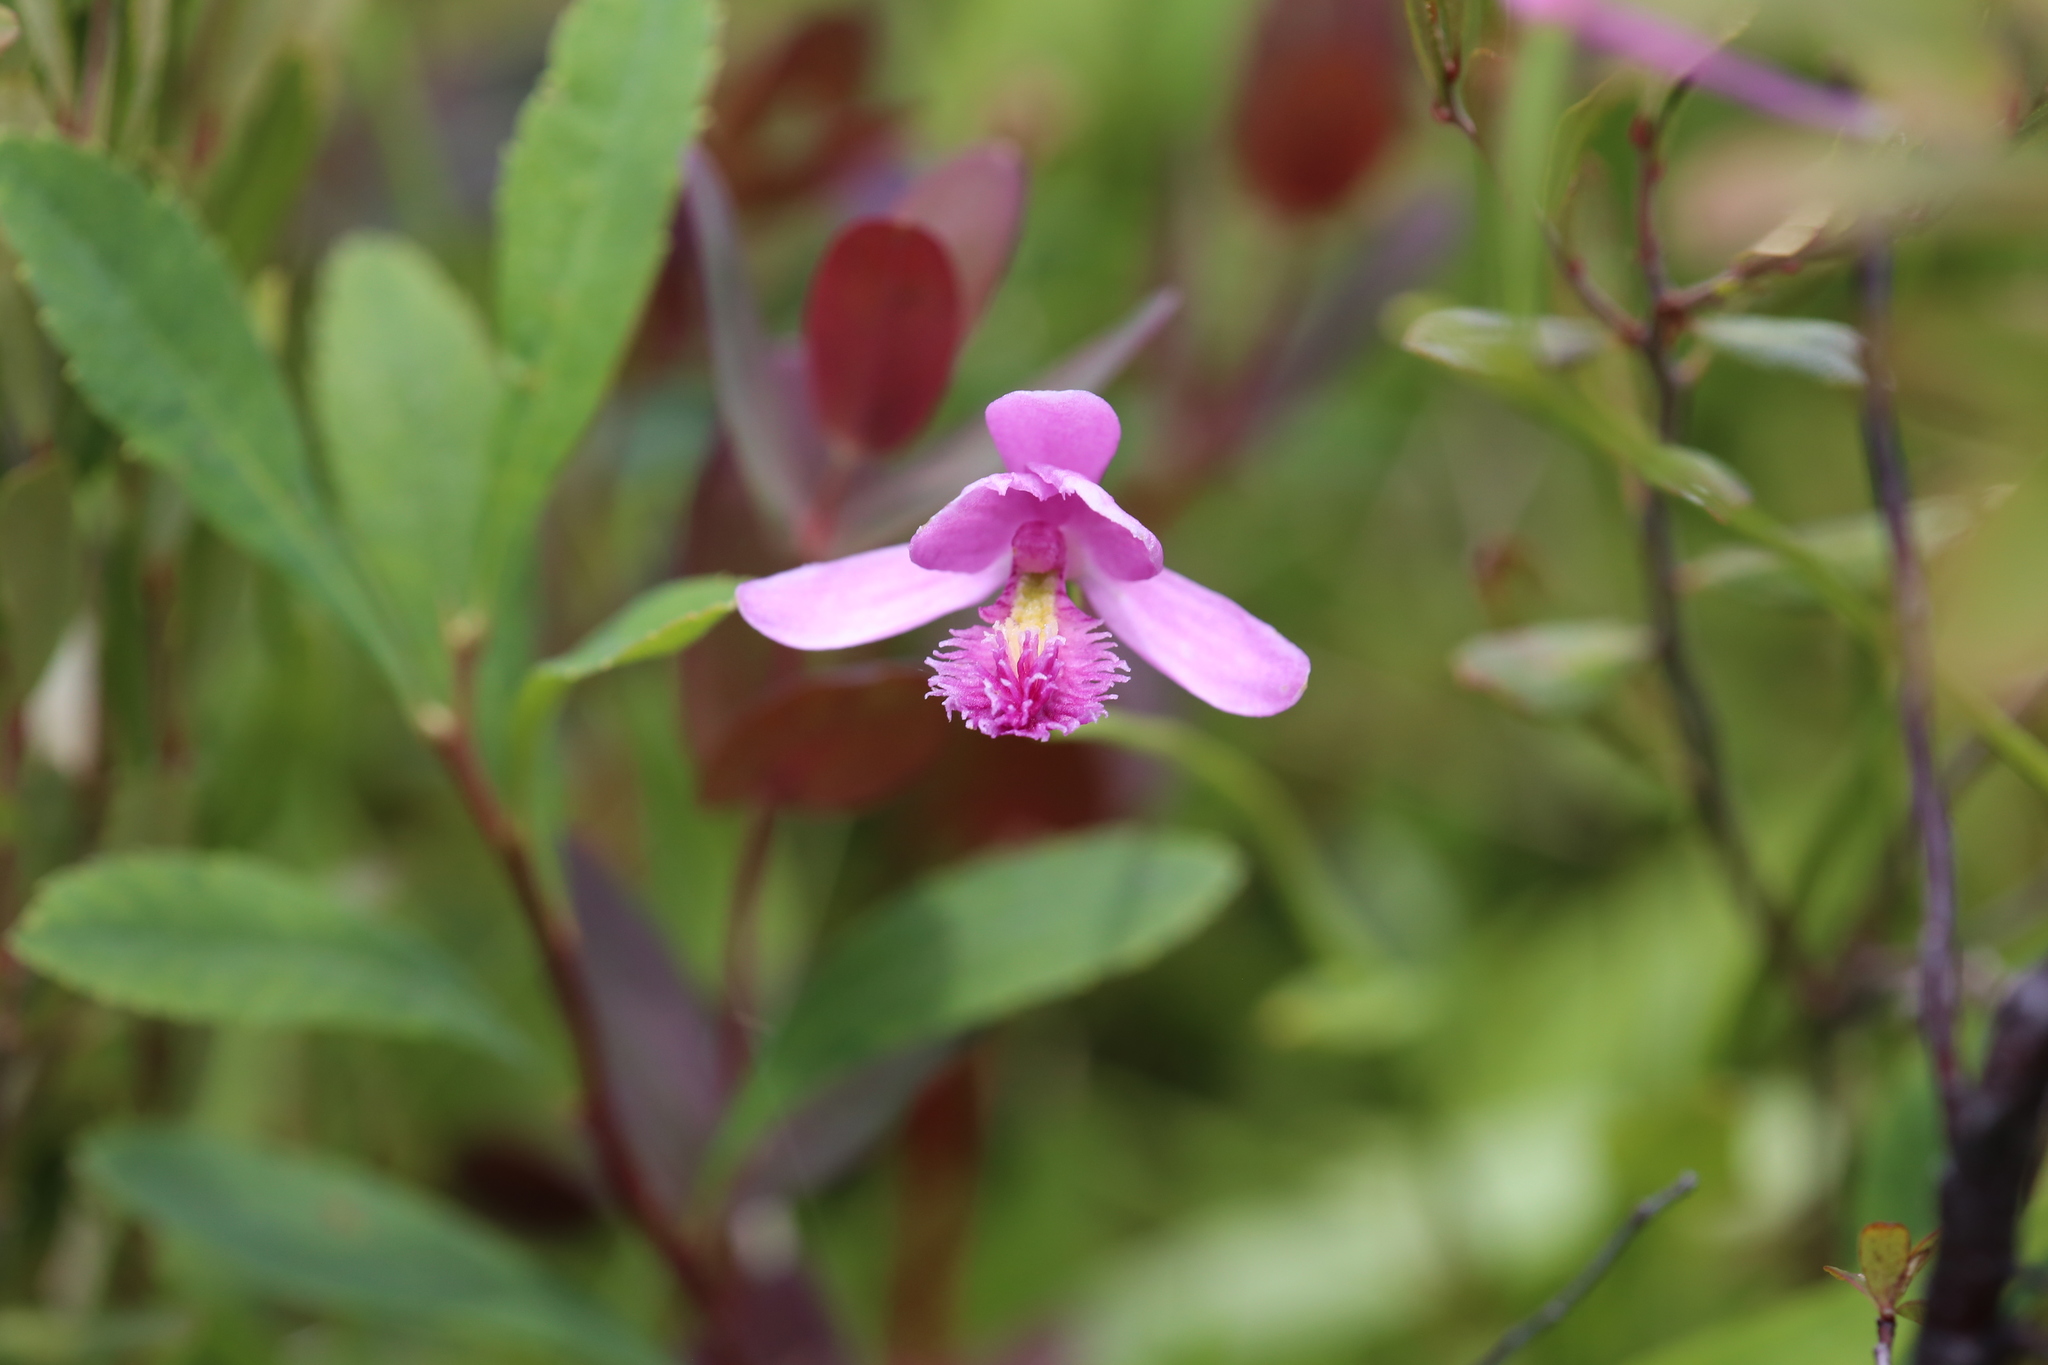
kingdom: Plantae
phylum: Tracheophyta
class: Liliopsida
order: Asparagales
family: Orchidaceae
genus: Pogonia
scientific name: Pogonia ophioglossoides
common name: Rose pogonia
